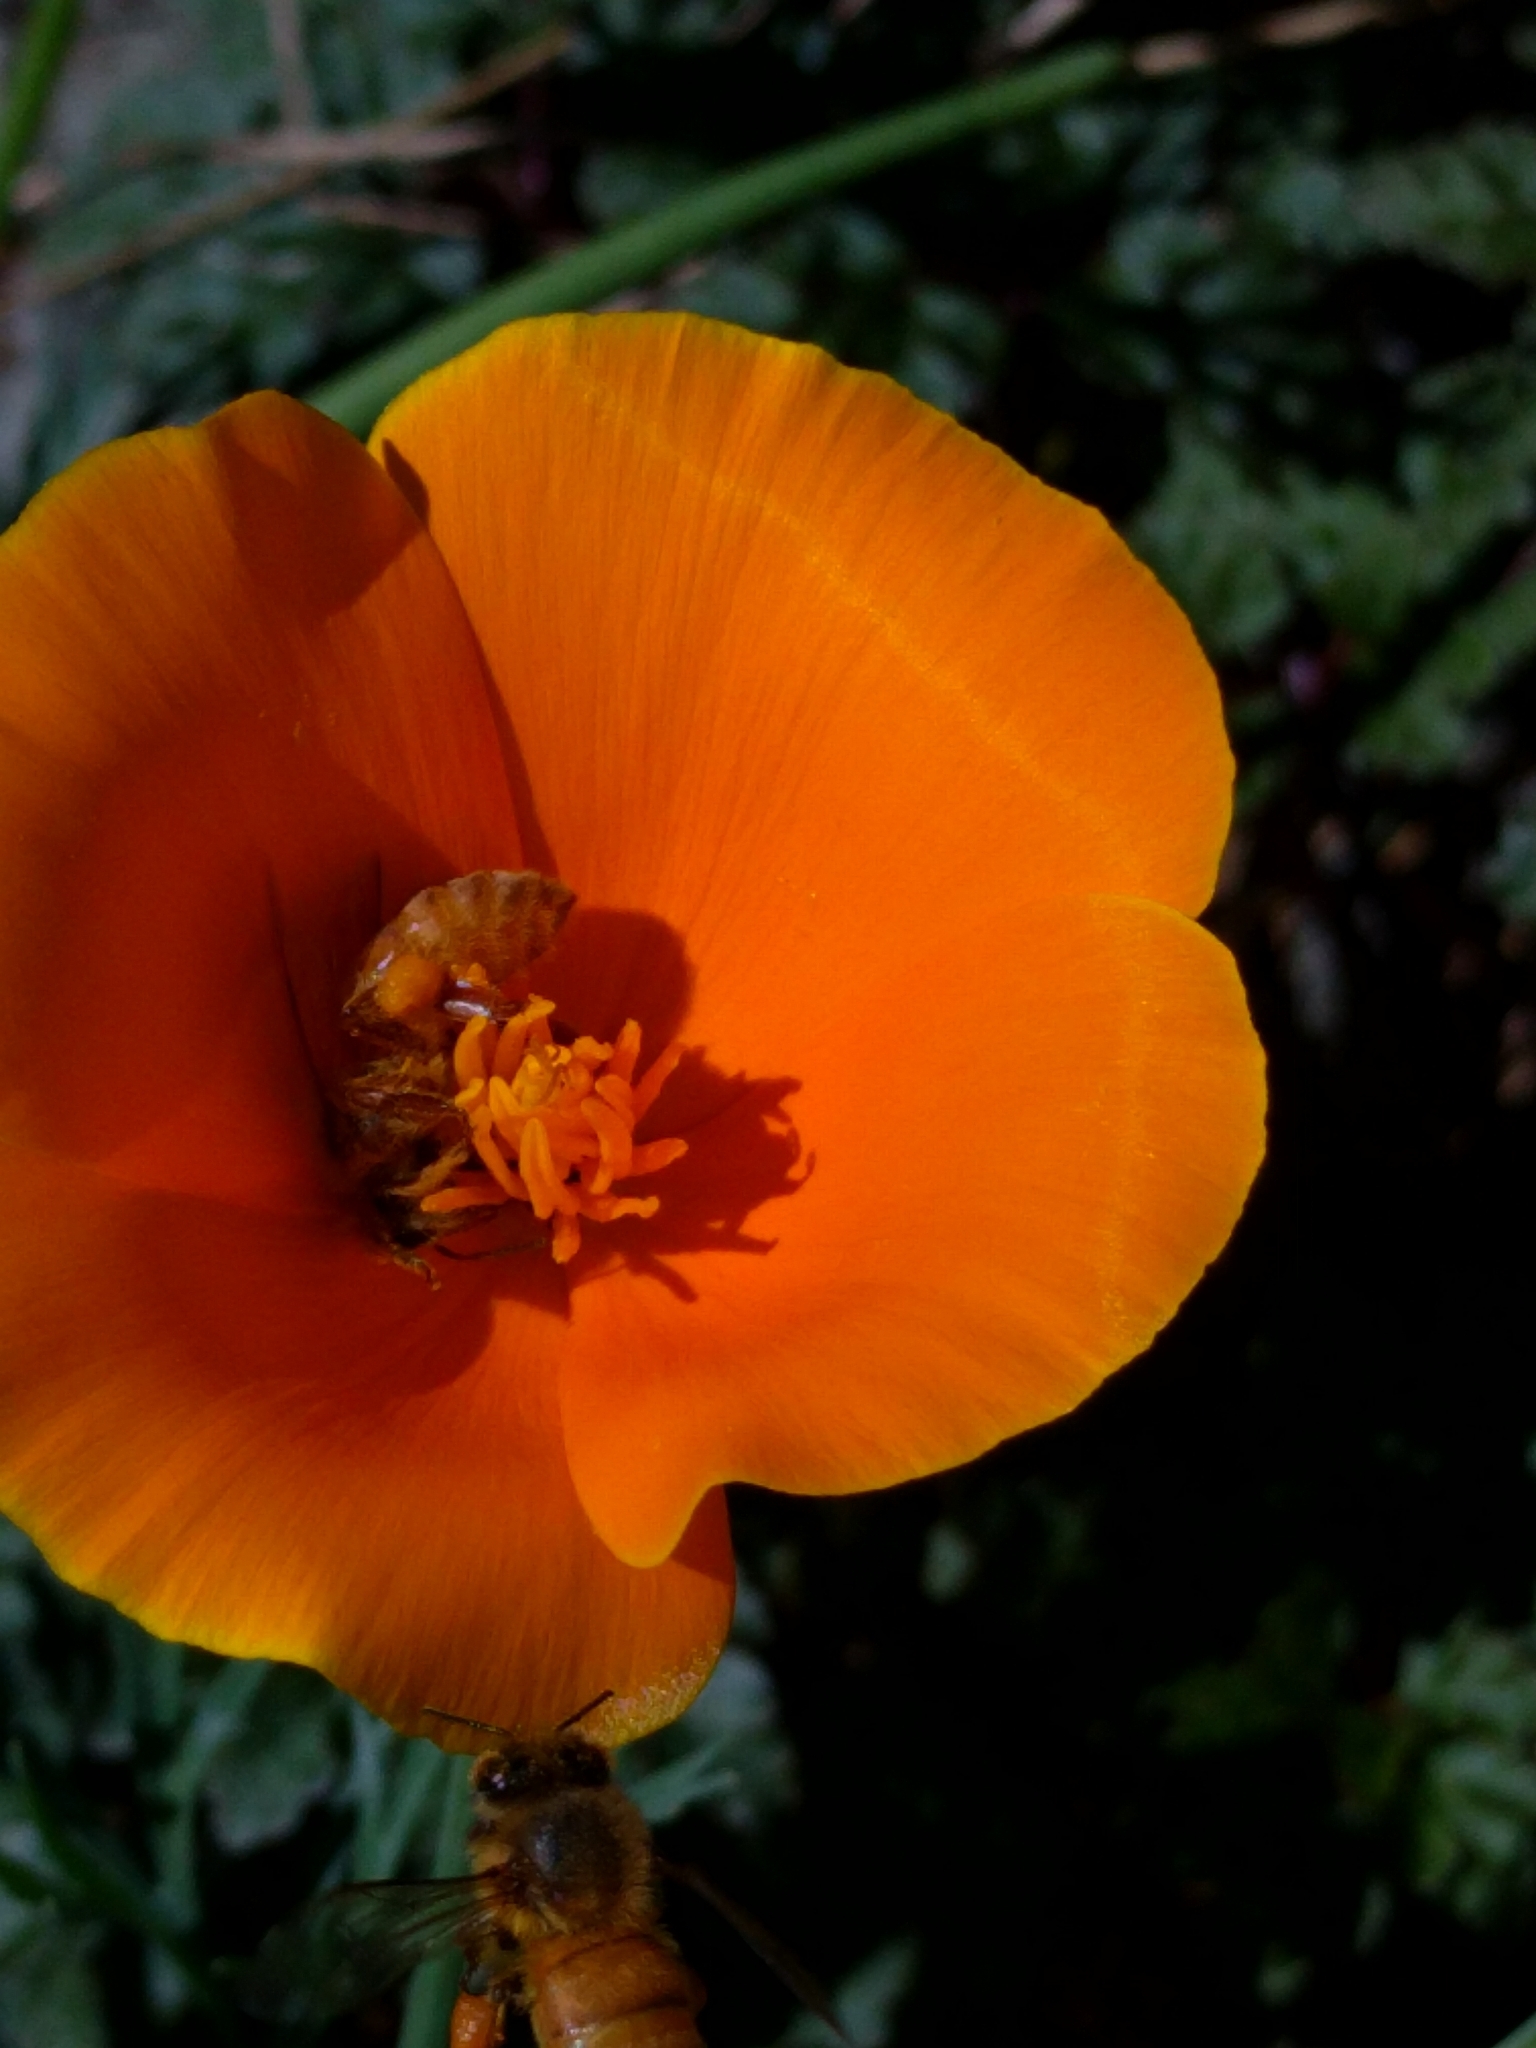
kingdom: Animalia
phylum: Arthropoda
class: Insecta
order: Hymenoptera
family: Apidae
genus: Apis
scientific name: Apis mellifera
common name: Honey bee
